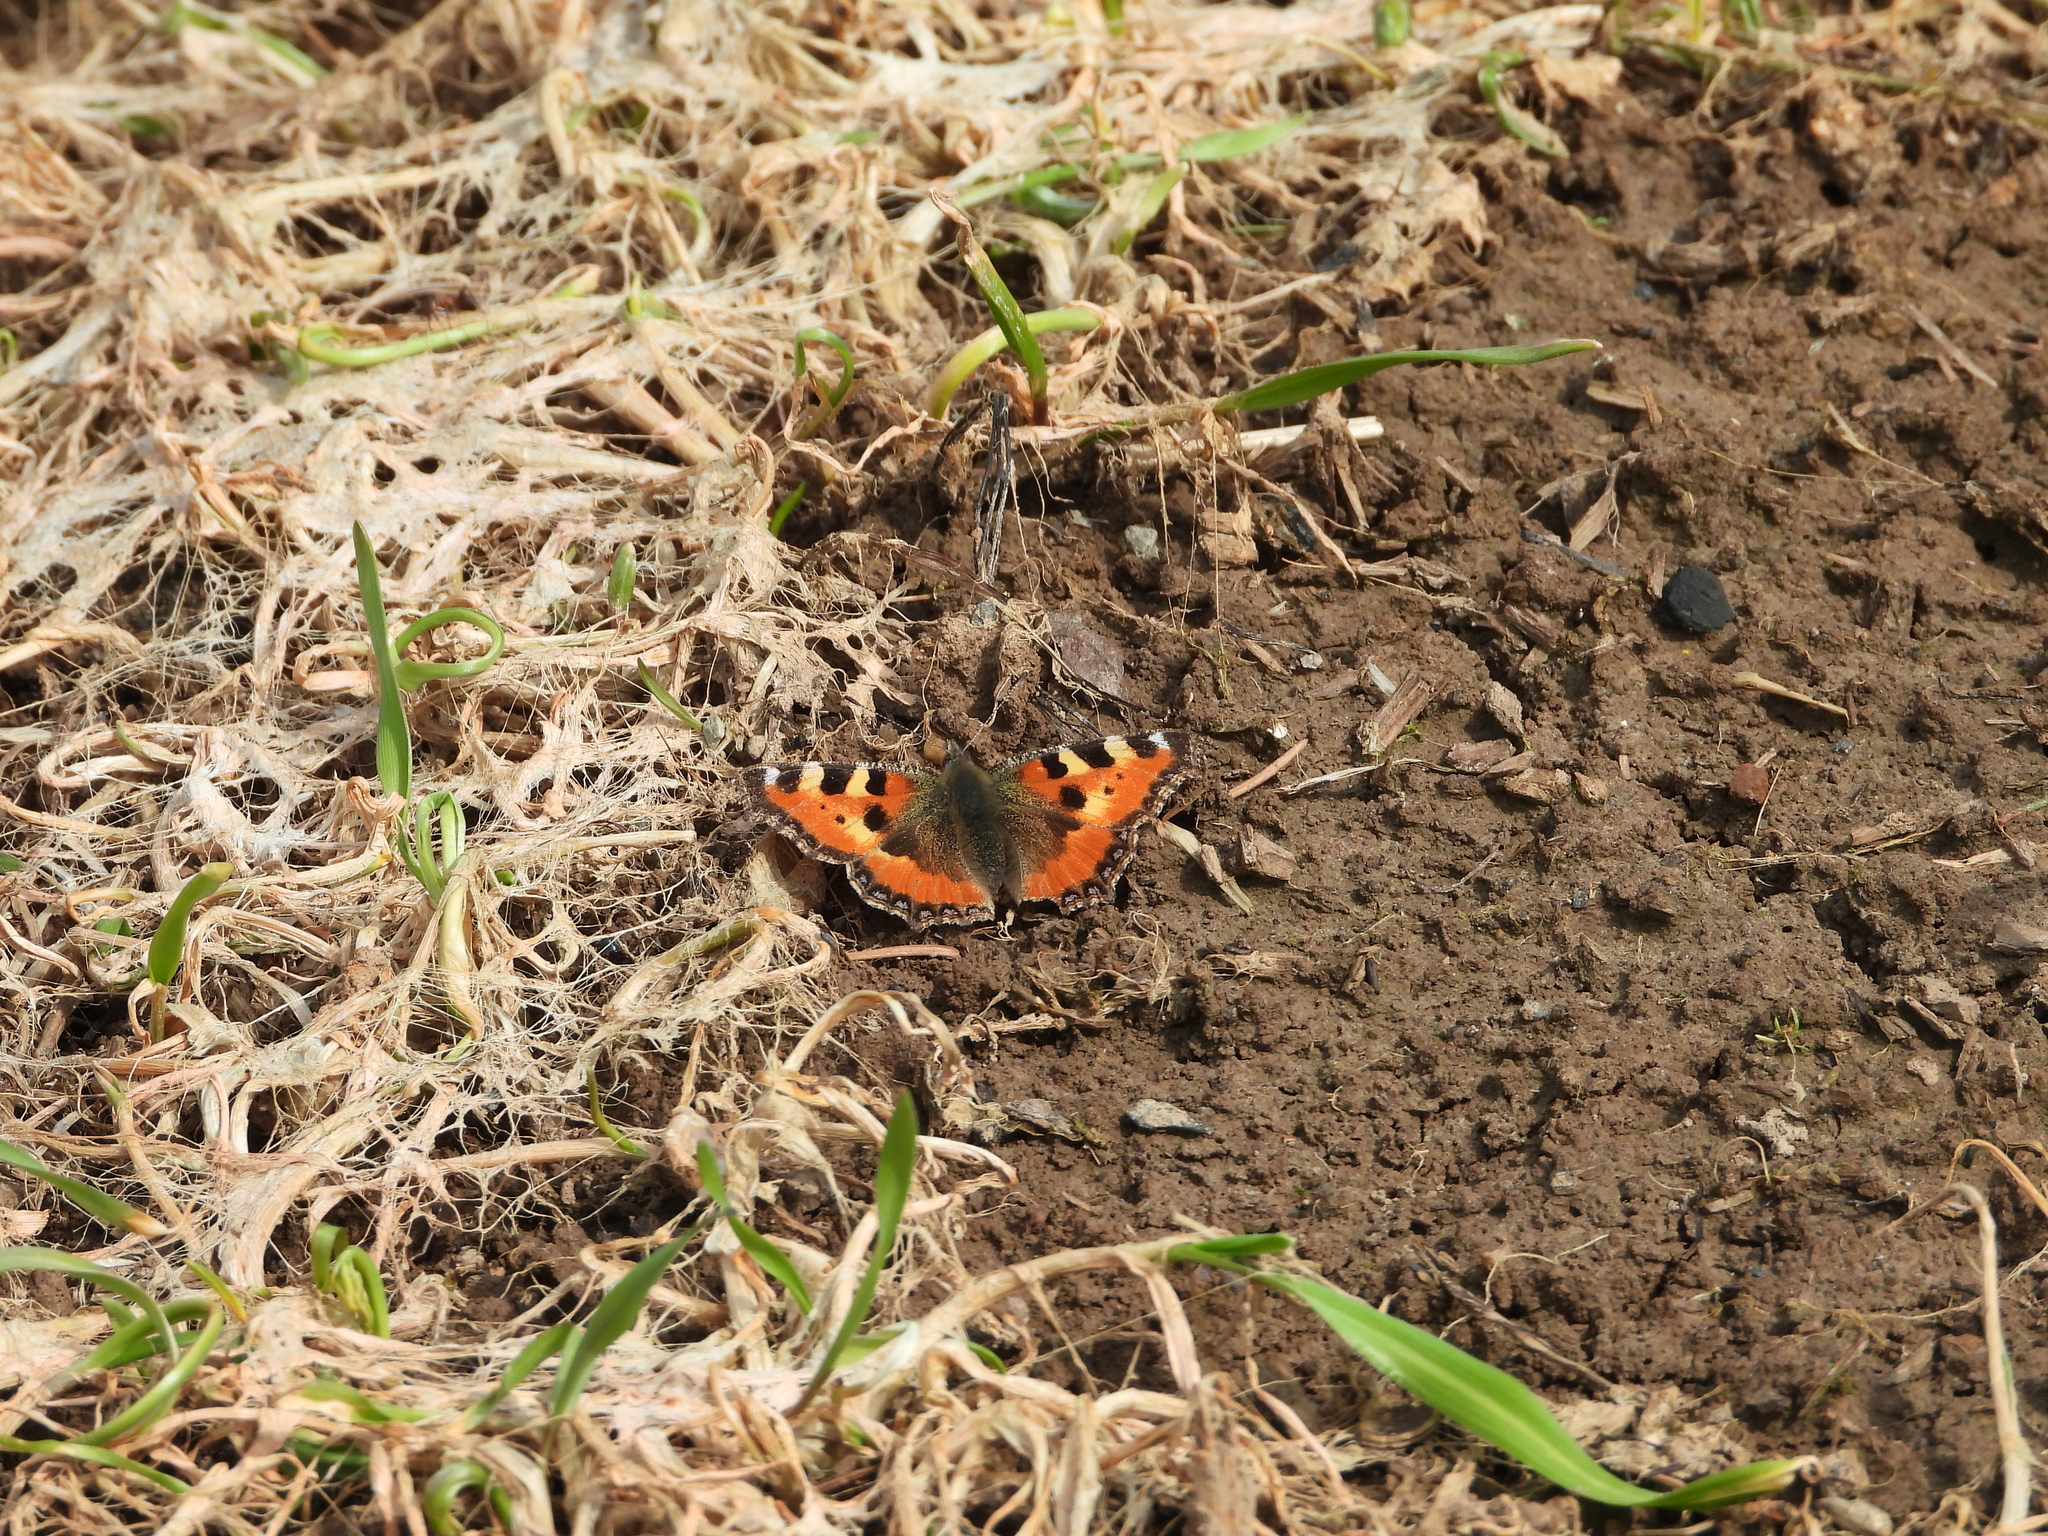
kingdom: Animalia
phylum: Arthropoda
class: Insecta
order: Lepidoptera
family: Nymphalidae
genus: Aglais
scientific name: Aglais urticae
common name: Small tortoiseshell
